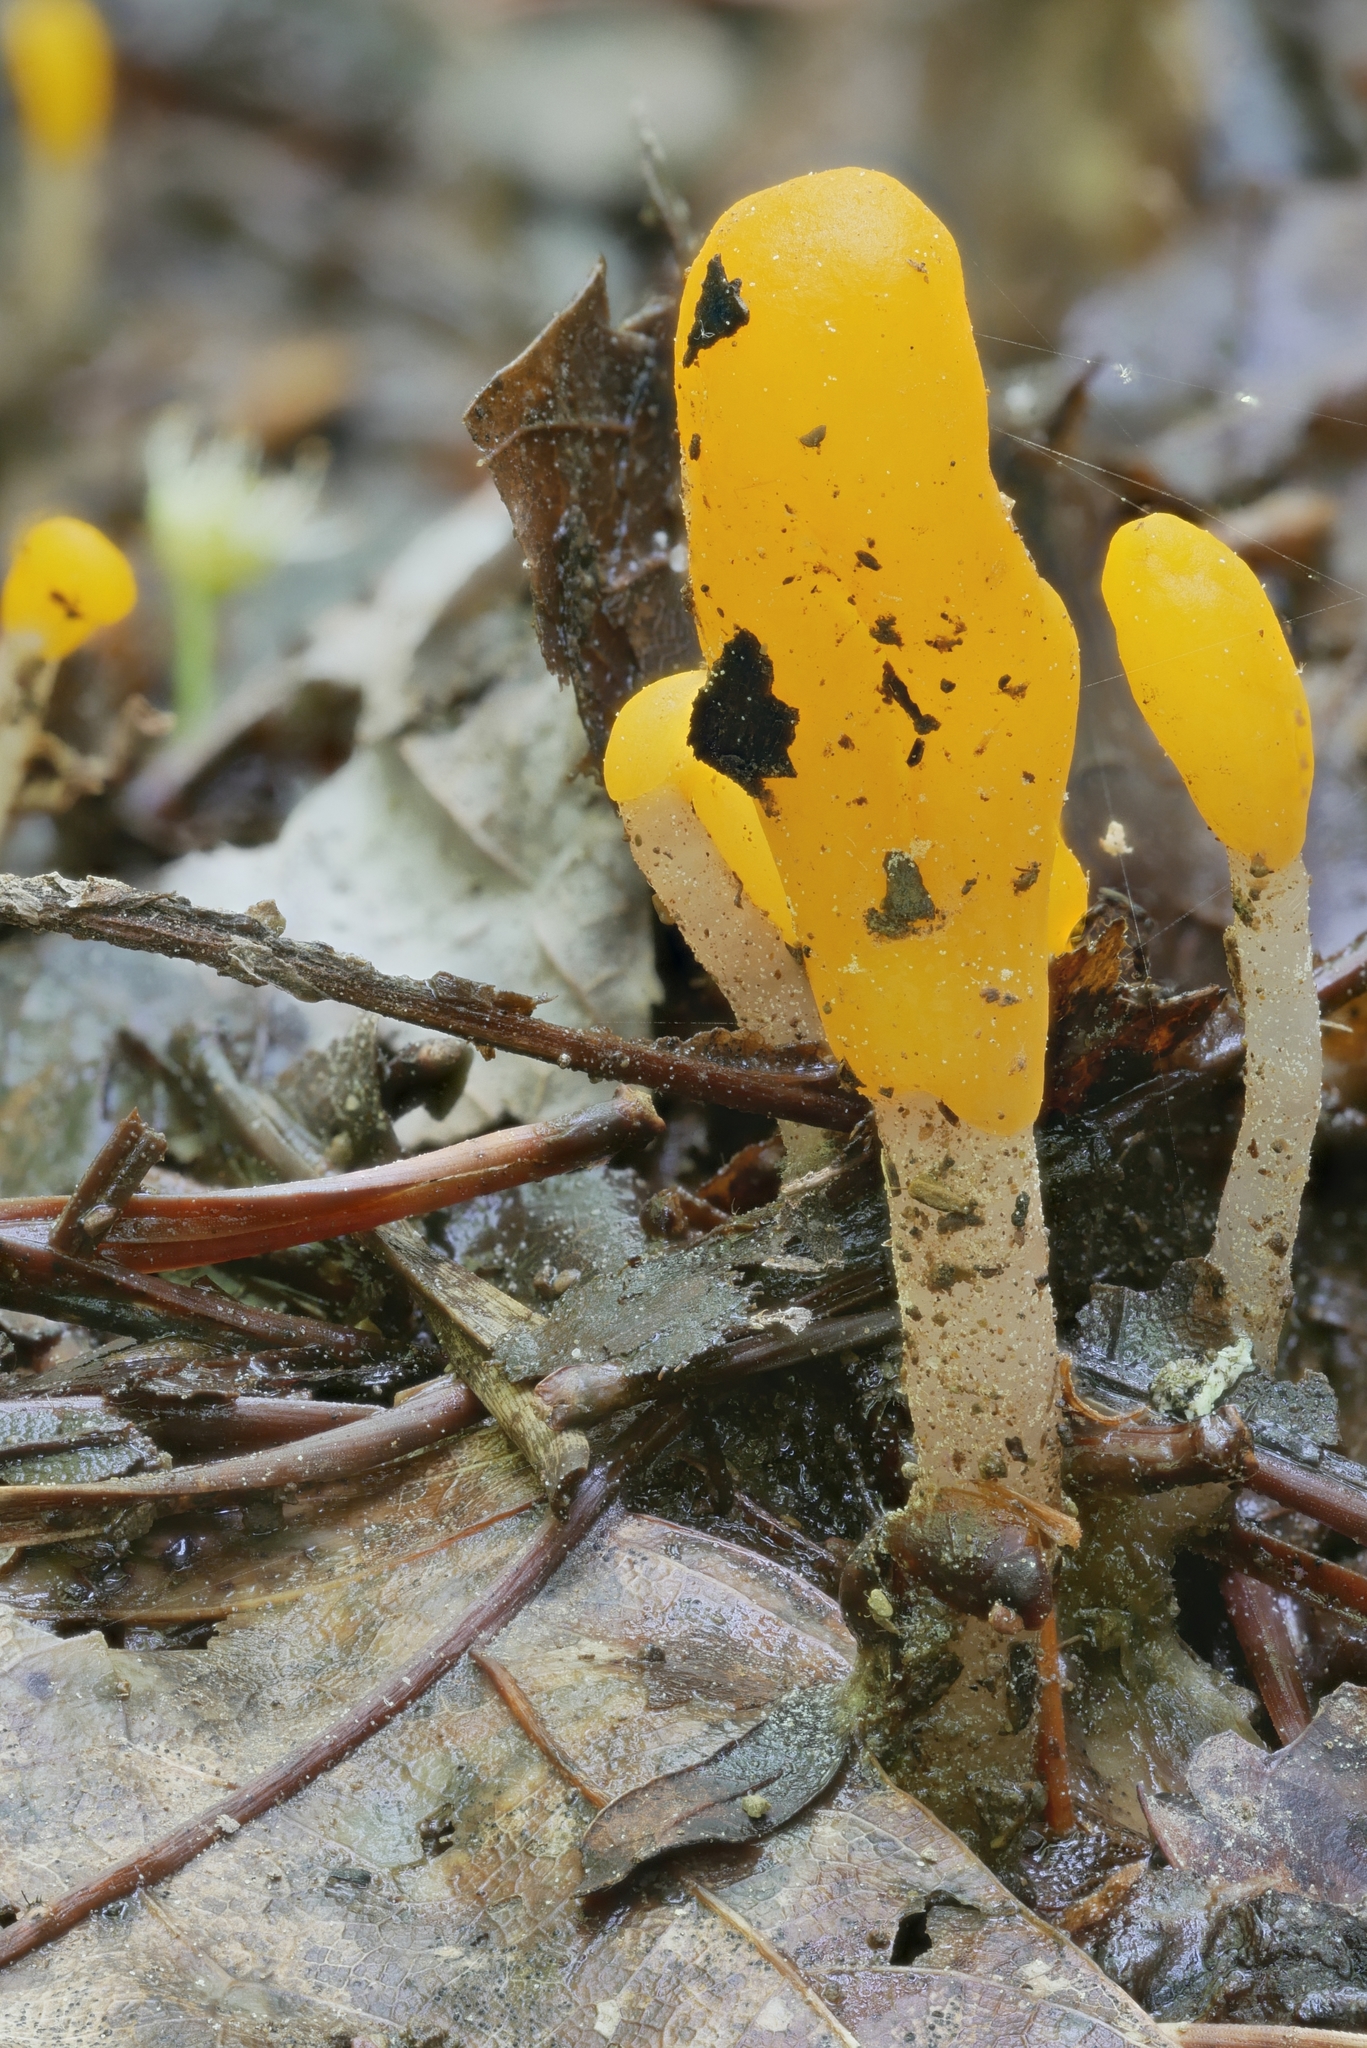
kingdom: Fungi
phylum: Ascomycota
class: Leotiomycetes
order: Helotiales
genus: Mitrula
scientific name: Mitrula
